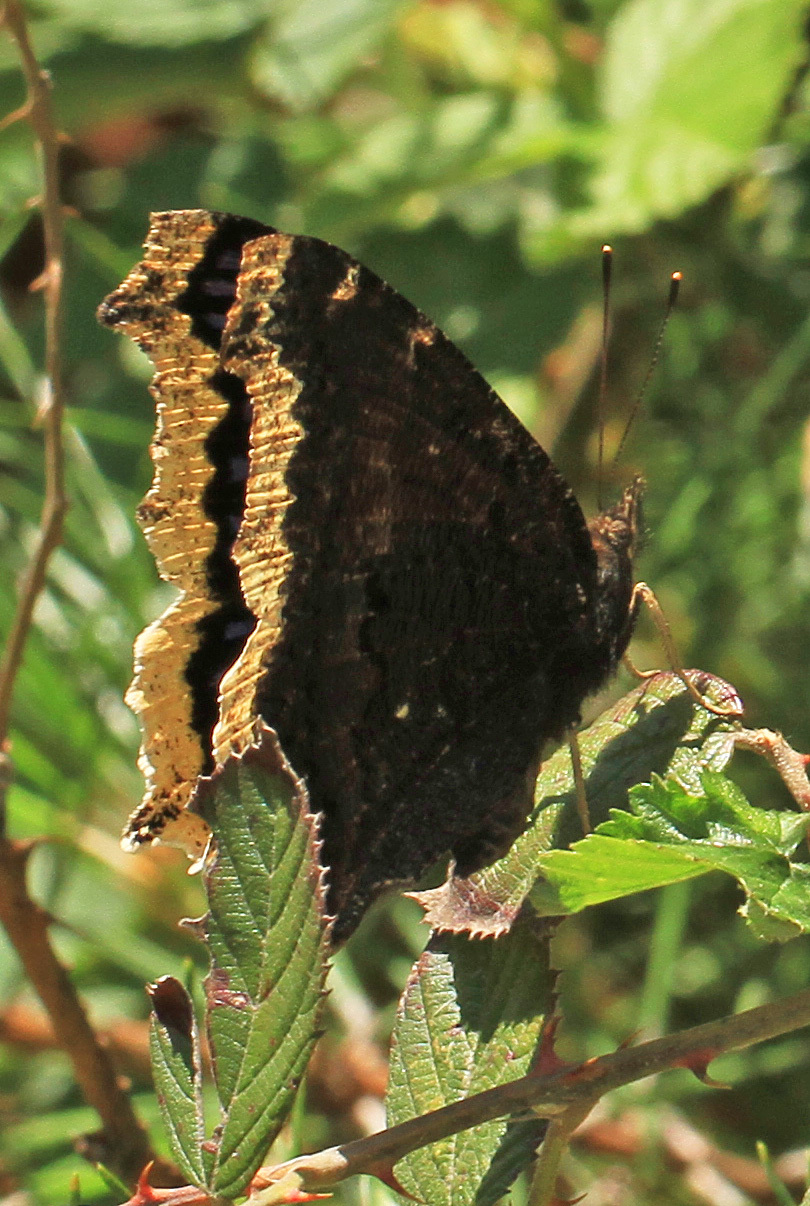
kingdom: Animalia
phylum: Arthropoda
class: Insecta
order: Lepidoptera
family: Nymphalidae
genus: Nymphalis
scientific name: Nymphalis antiopa
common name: Camberwell beauty
